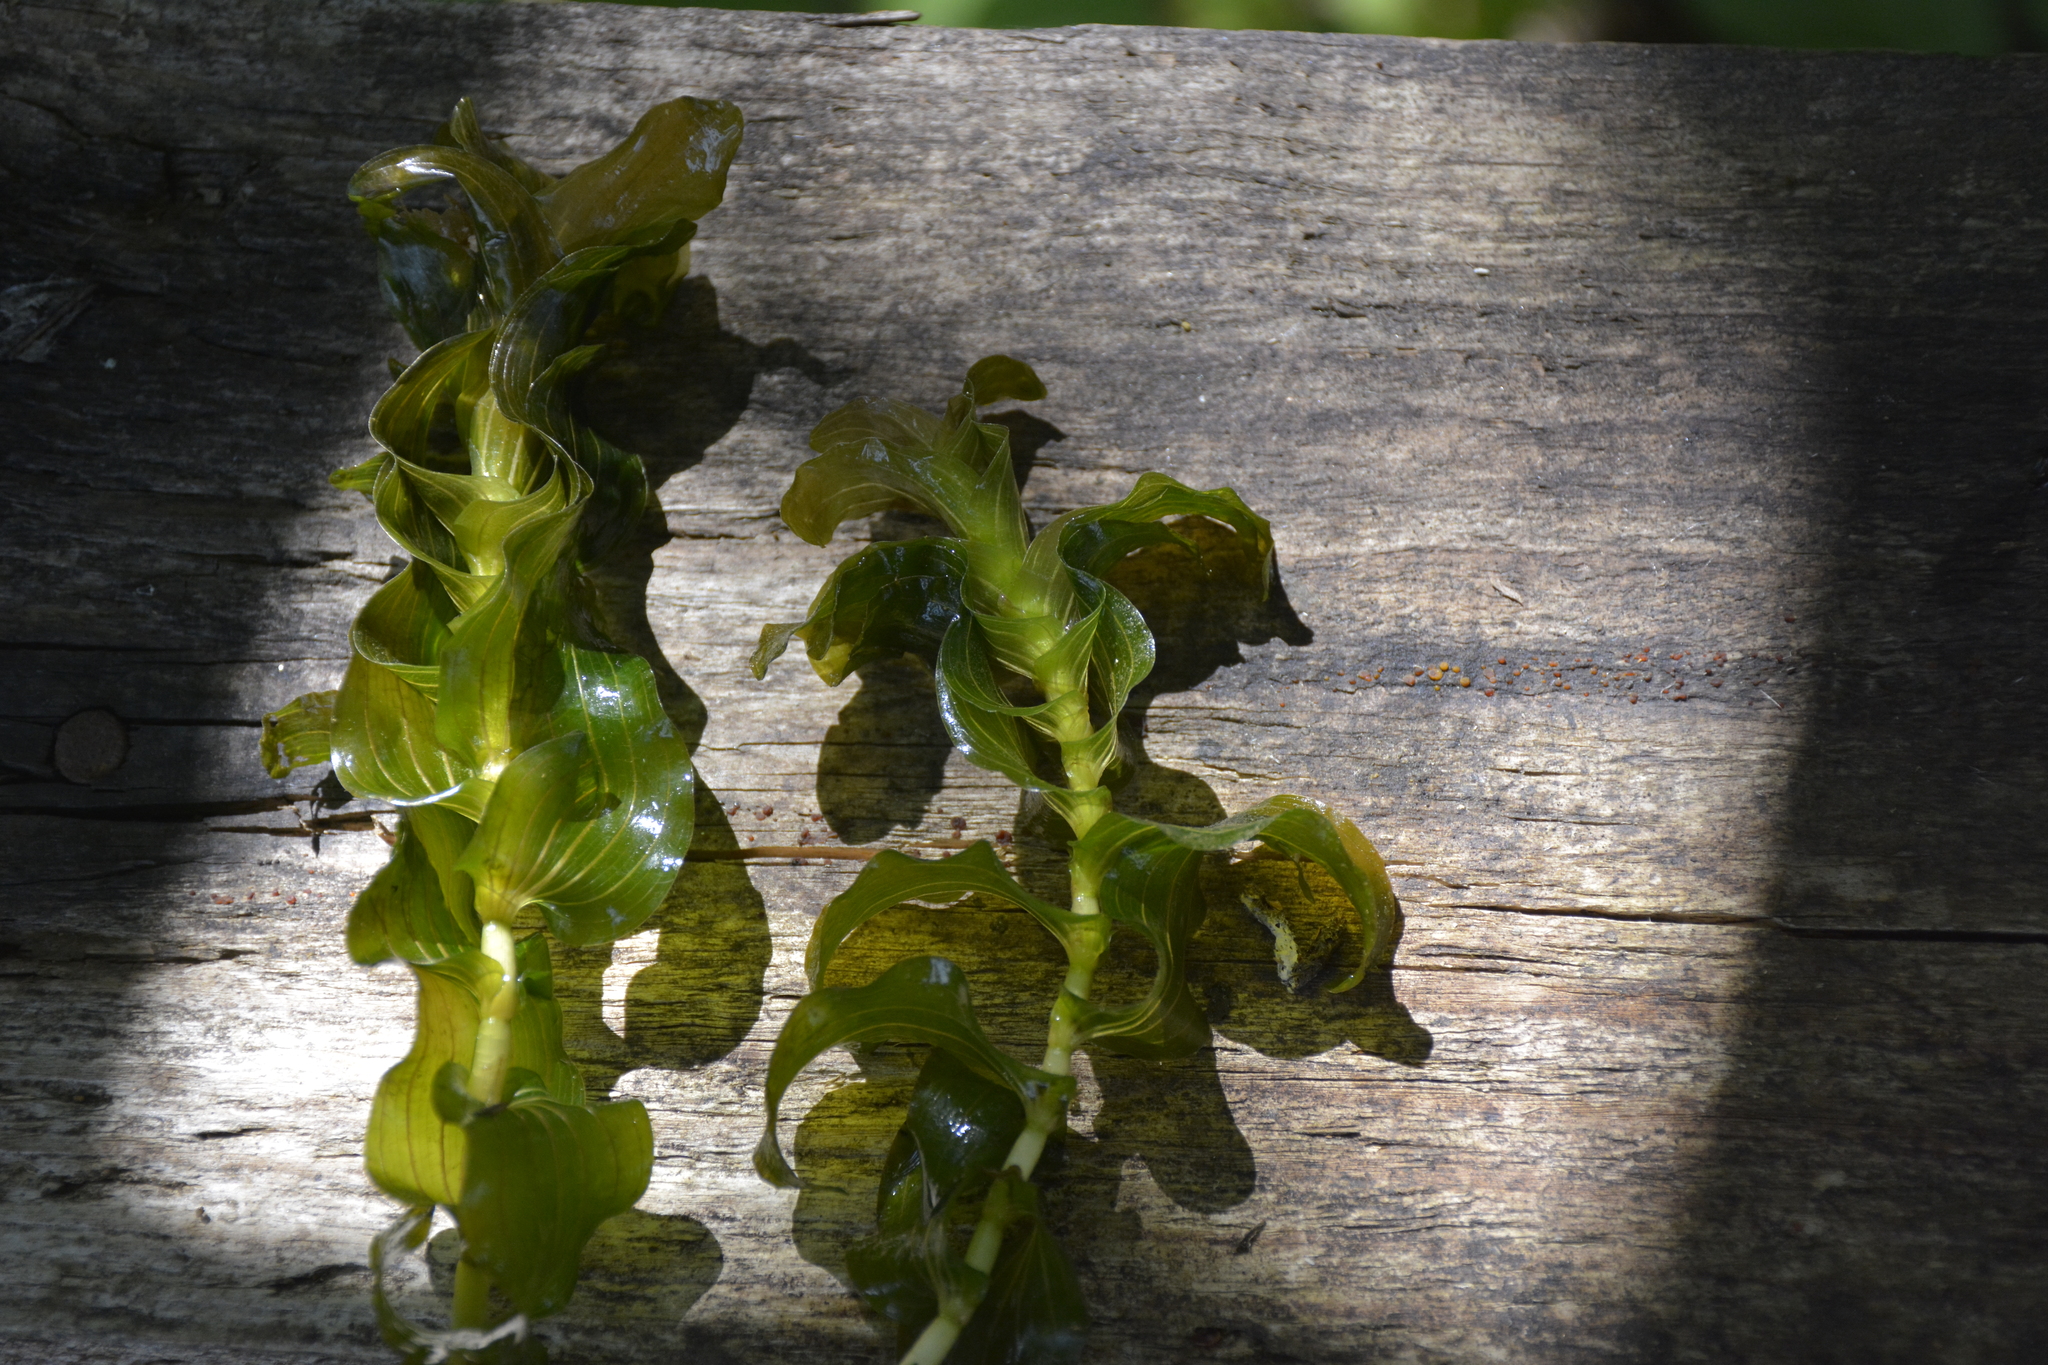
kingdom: Plantae
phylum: Tracheophyta
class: Liliopsida
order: Alismatales
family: Potamogetonaceae
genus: Potamogeton
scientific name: Potamogeton perfoliatus
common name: Perfoliate pondweed
